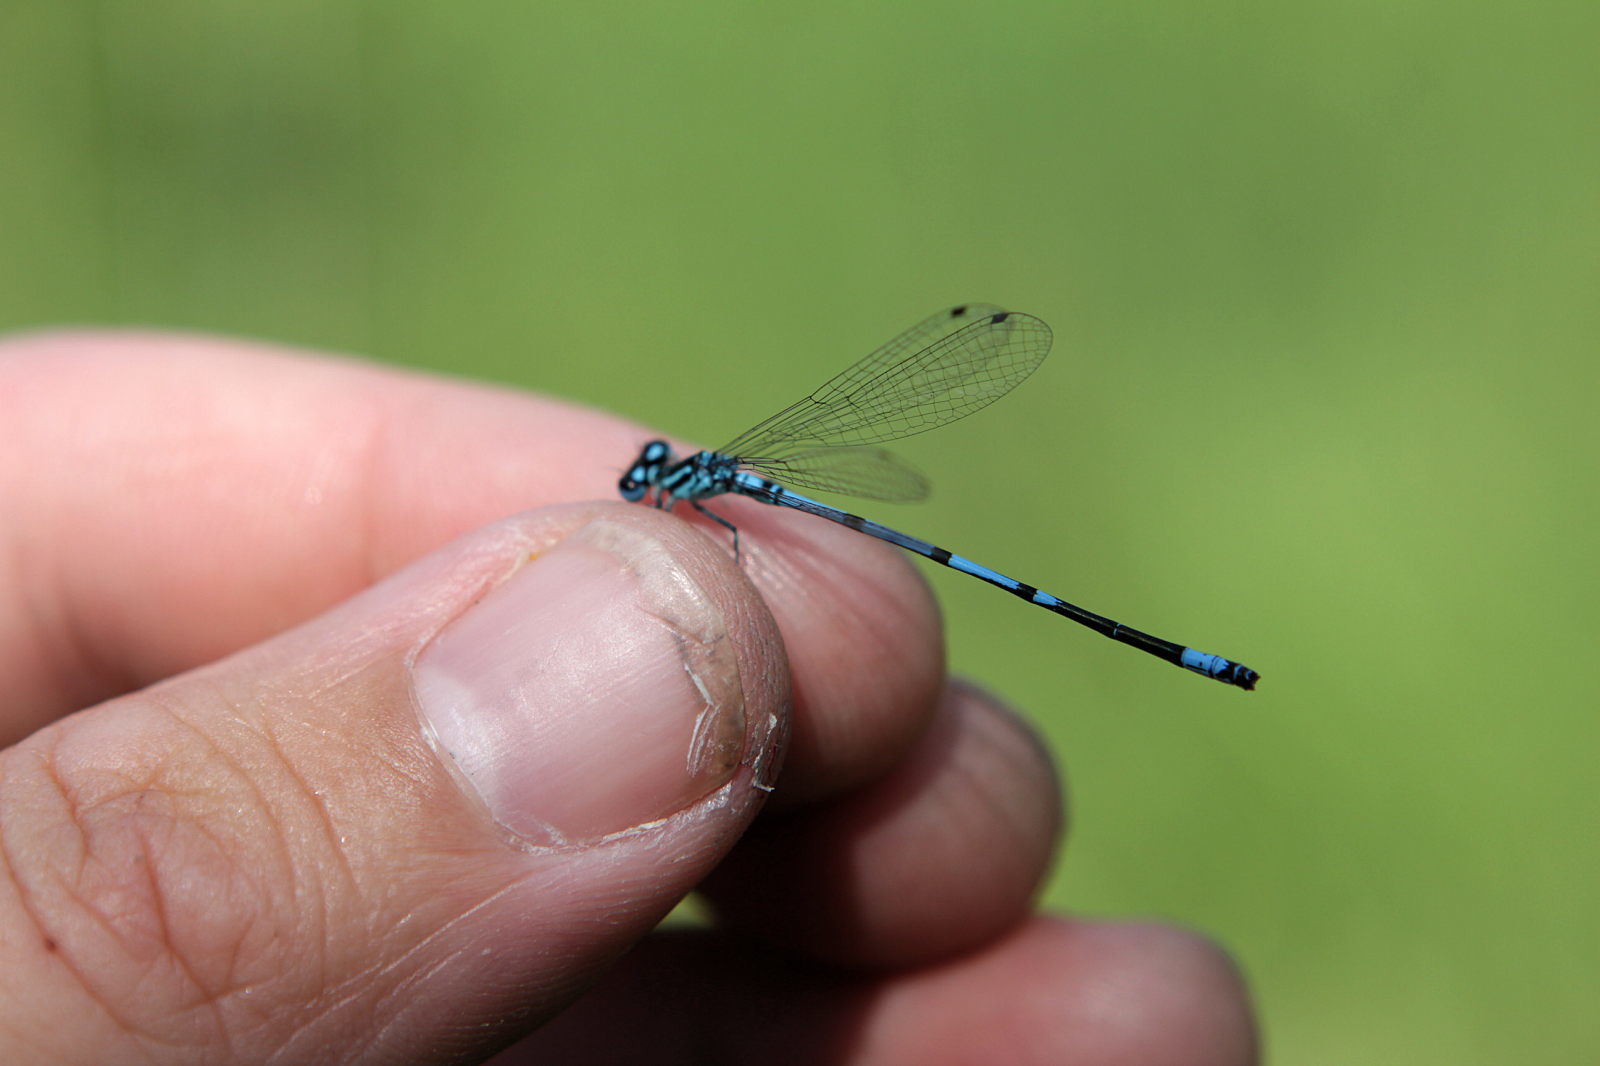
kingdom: Animalia
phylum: Arthropoda
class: Insecta
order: Odonata
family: Coenagrionidae
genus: Coenagrion
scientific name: Coenagrion puella
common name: Azure damselfly
